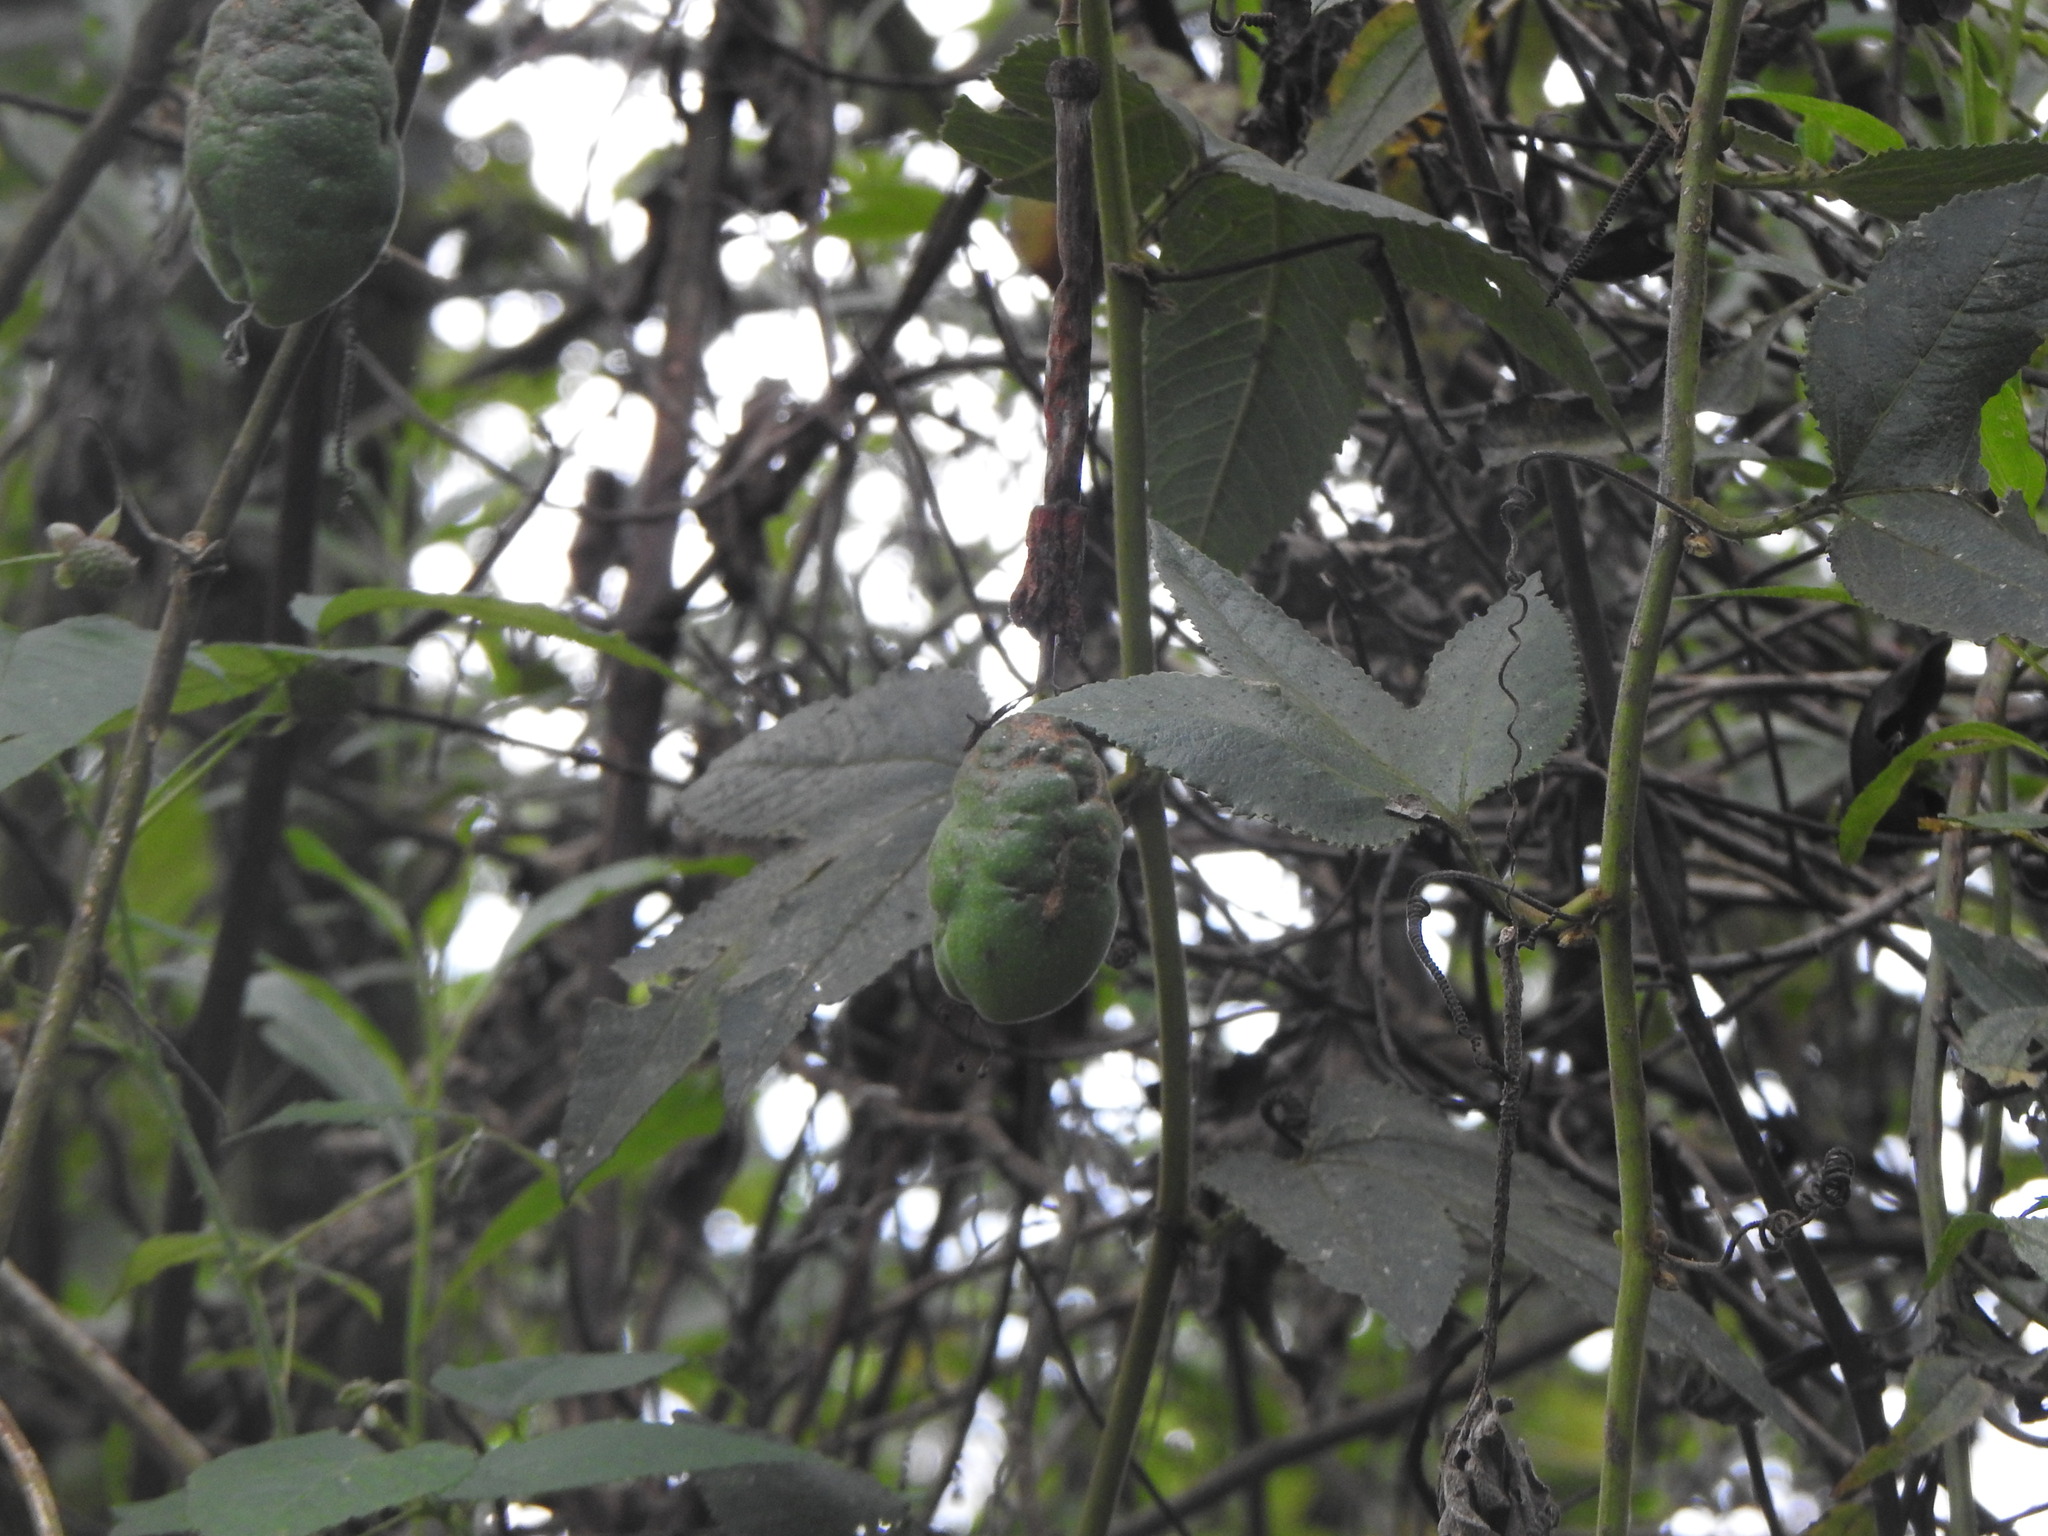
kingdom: Plantae
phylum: Tracheophyta
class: Magnoliopsida
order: Malpighiales
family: Passifloraceae
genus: Passiflora
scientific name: Passiflora tripartita
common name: Banana poka
